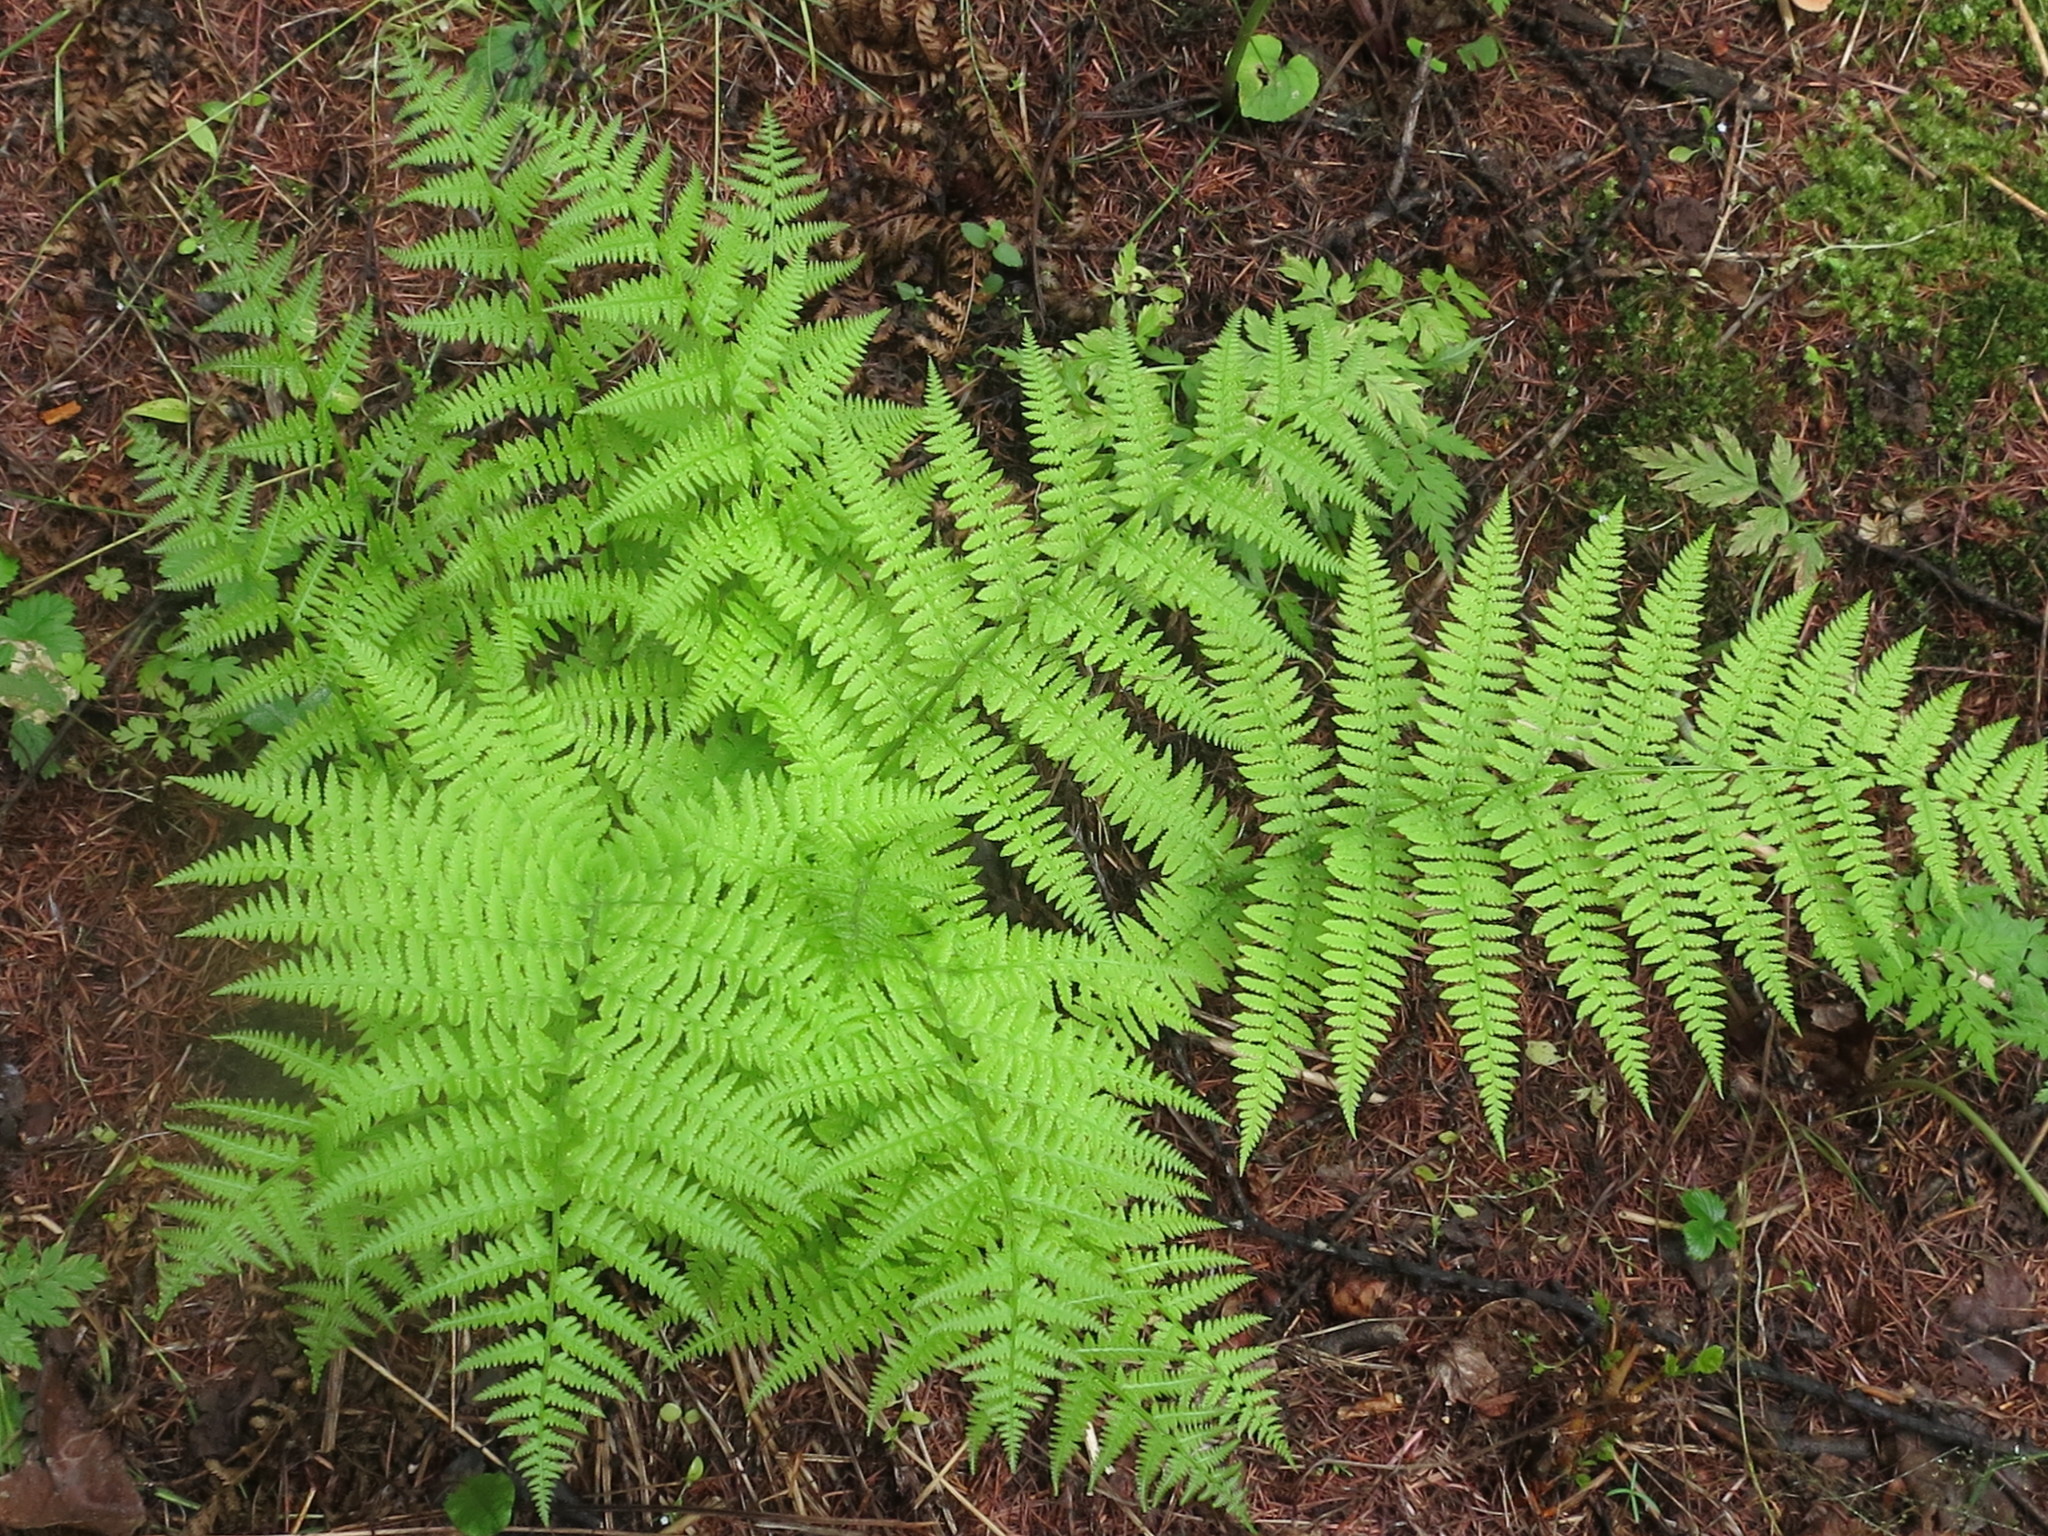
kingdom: Plantae
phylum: Tracheophyta
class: Polypodiopsida
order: Polypodiales
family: Athyriaceae
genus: Athyrium
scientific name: Athyrium filix-femina
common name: Lady fern
